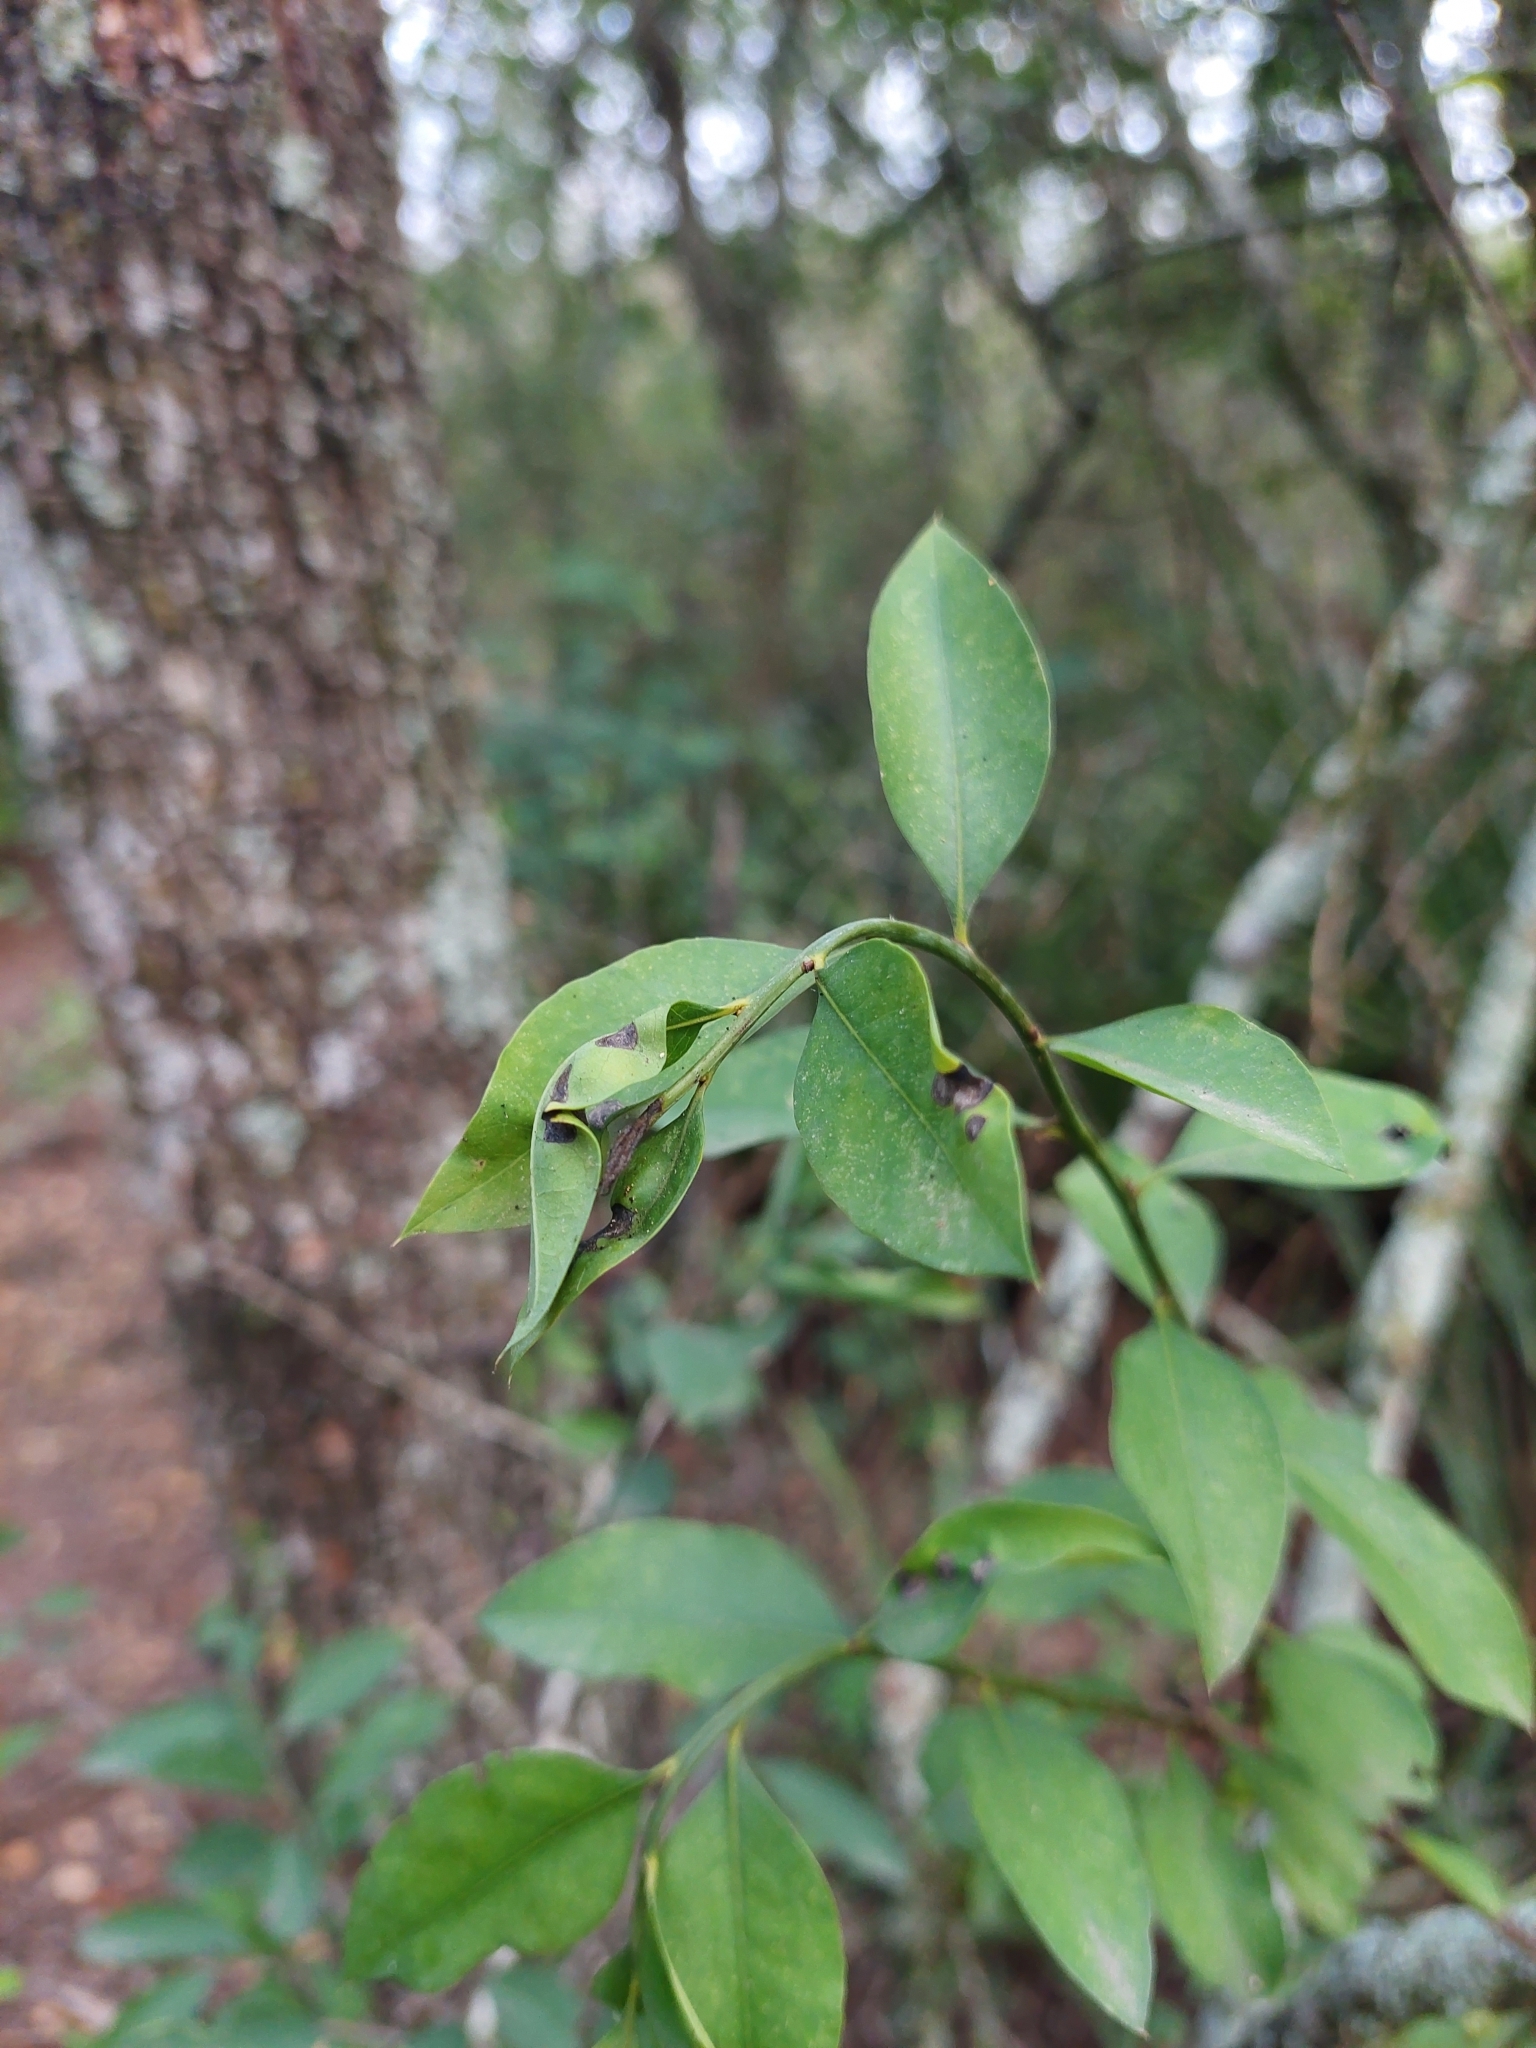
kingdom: Plantae
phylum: Tracheophyta
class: Magnoliopsida
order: Caryophyllales
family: Achatocarpaceae
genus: Achatocarpus
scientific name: Achatocarpus praecox
